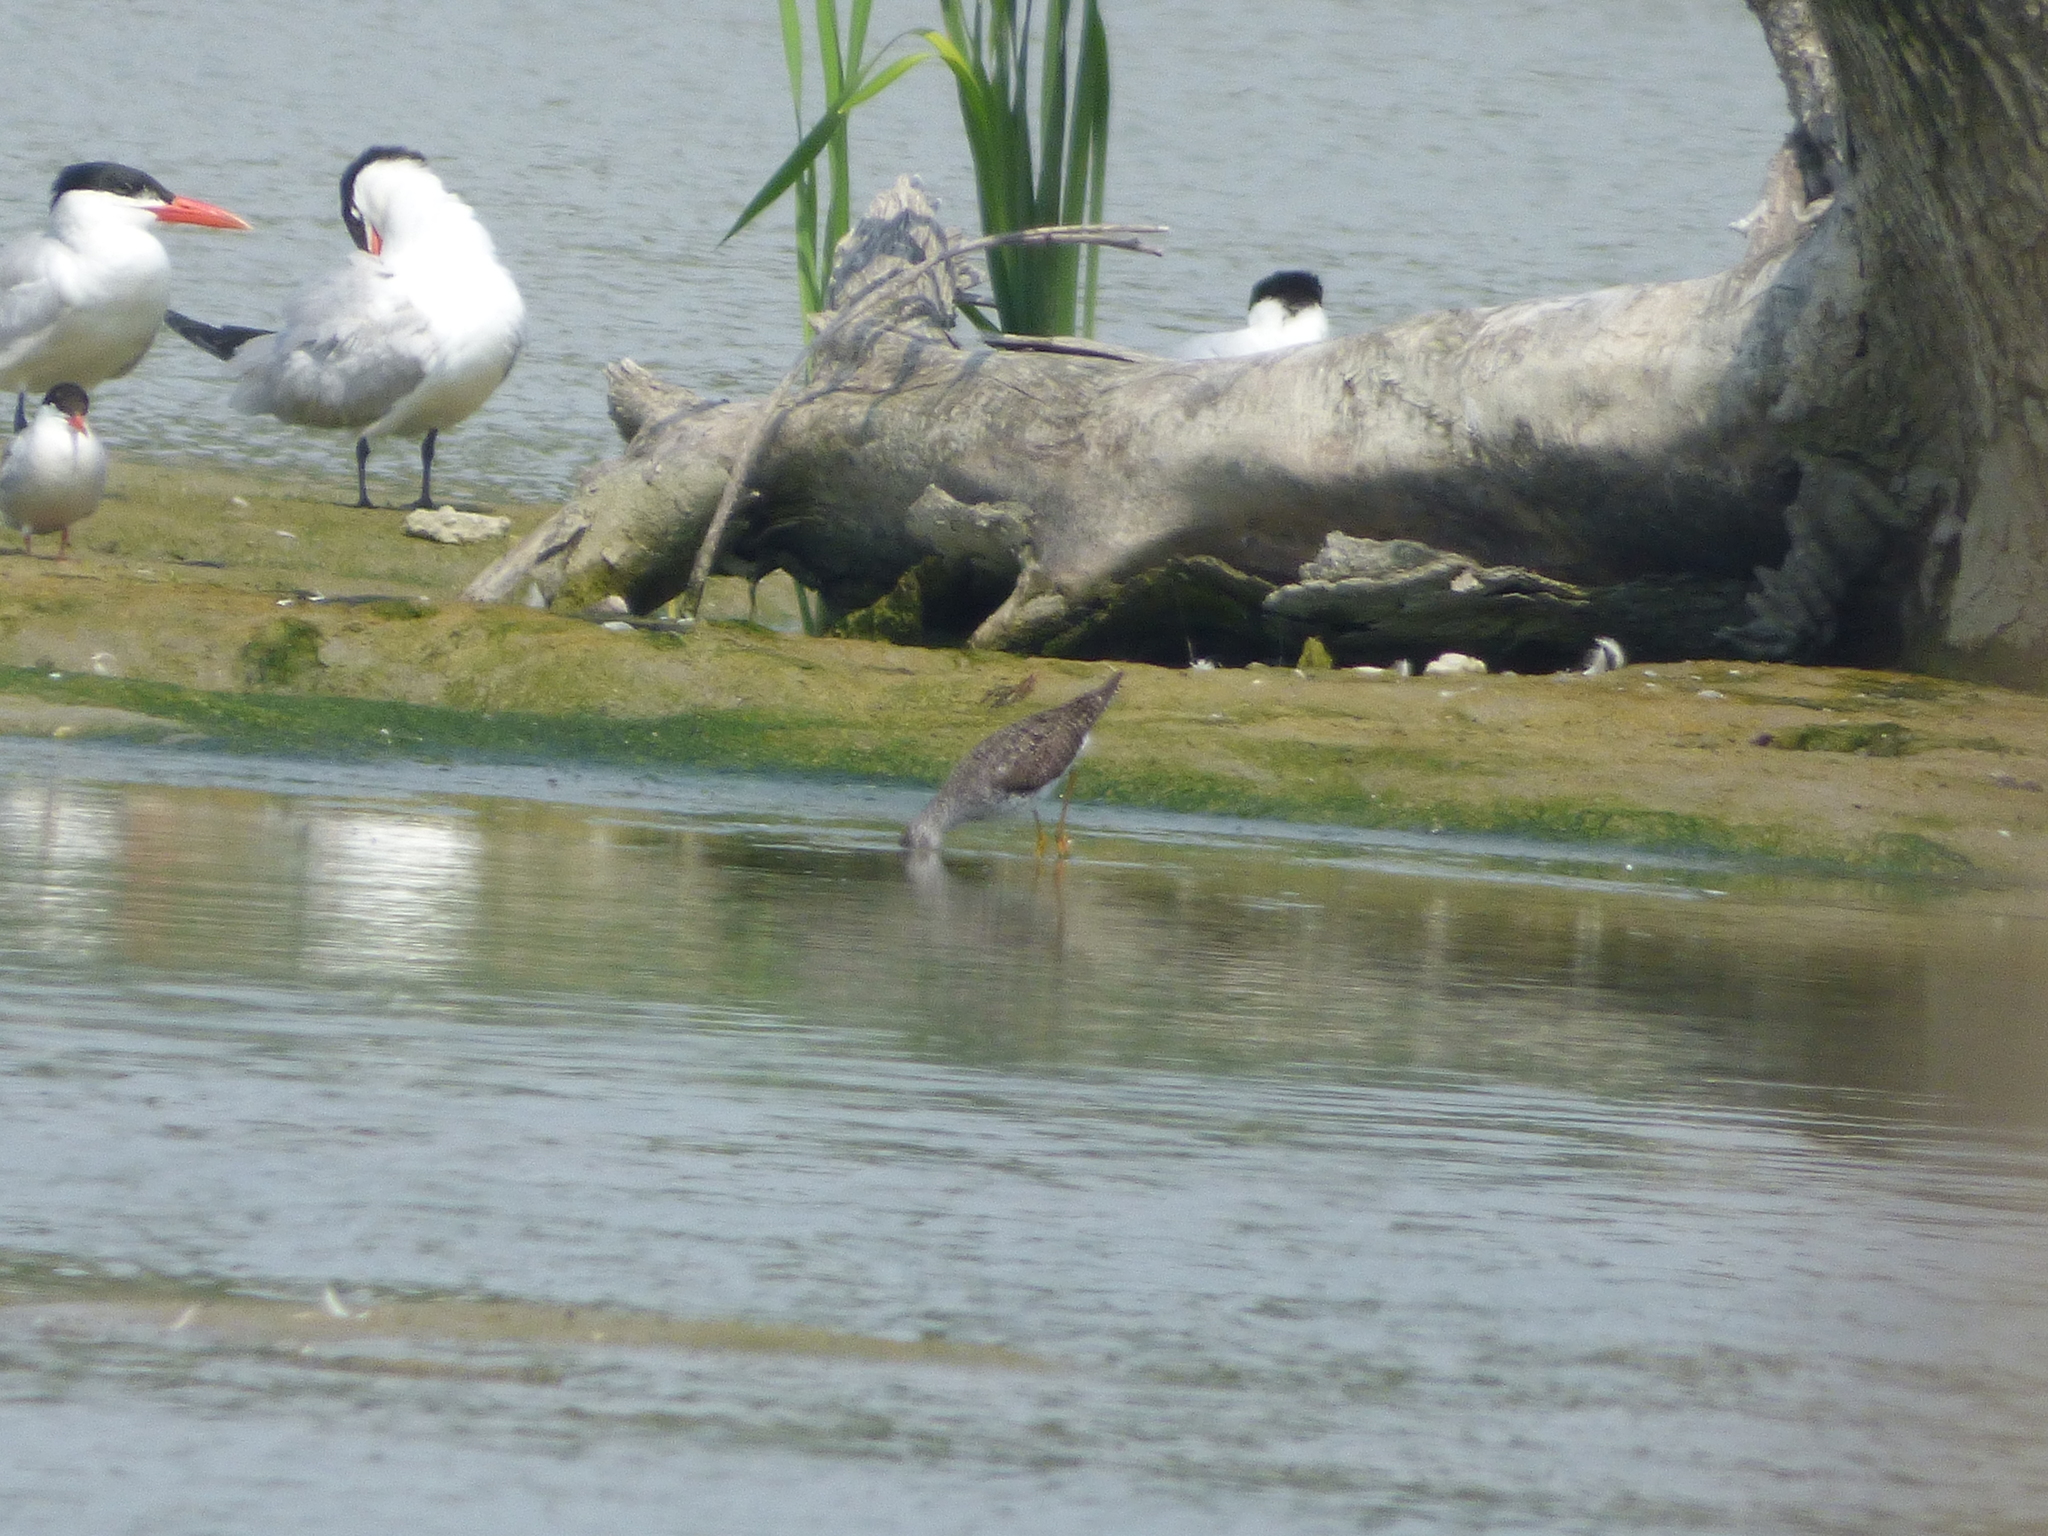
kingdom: Animalia
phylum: Chordata
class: Aves
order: Charadriiformes
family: Laridae
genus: Hydroprogne
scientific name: Hydroprogne caspia
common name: Caspian tern
